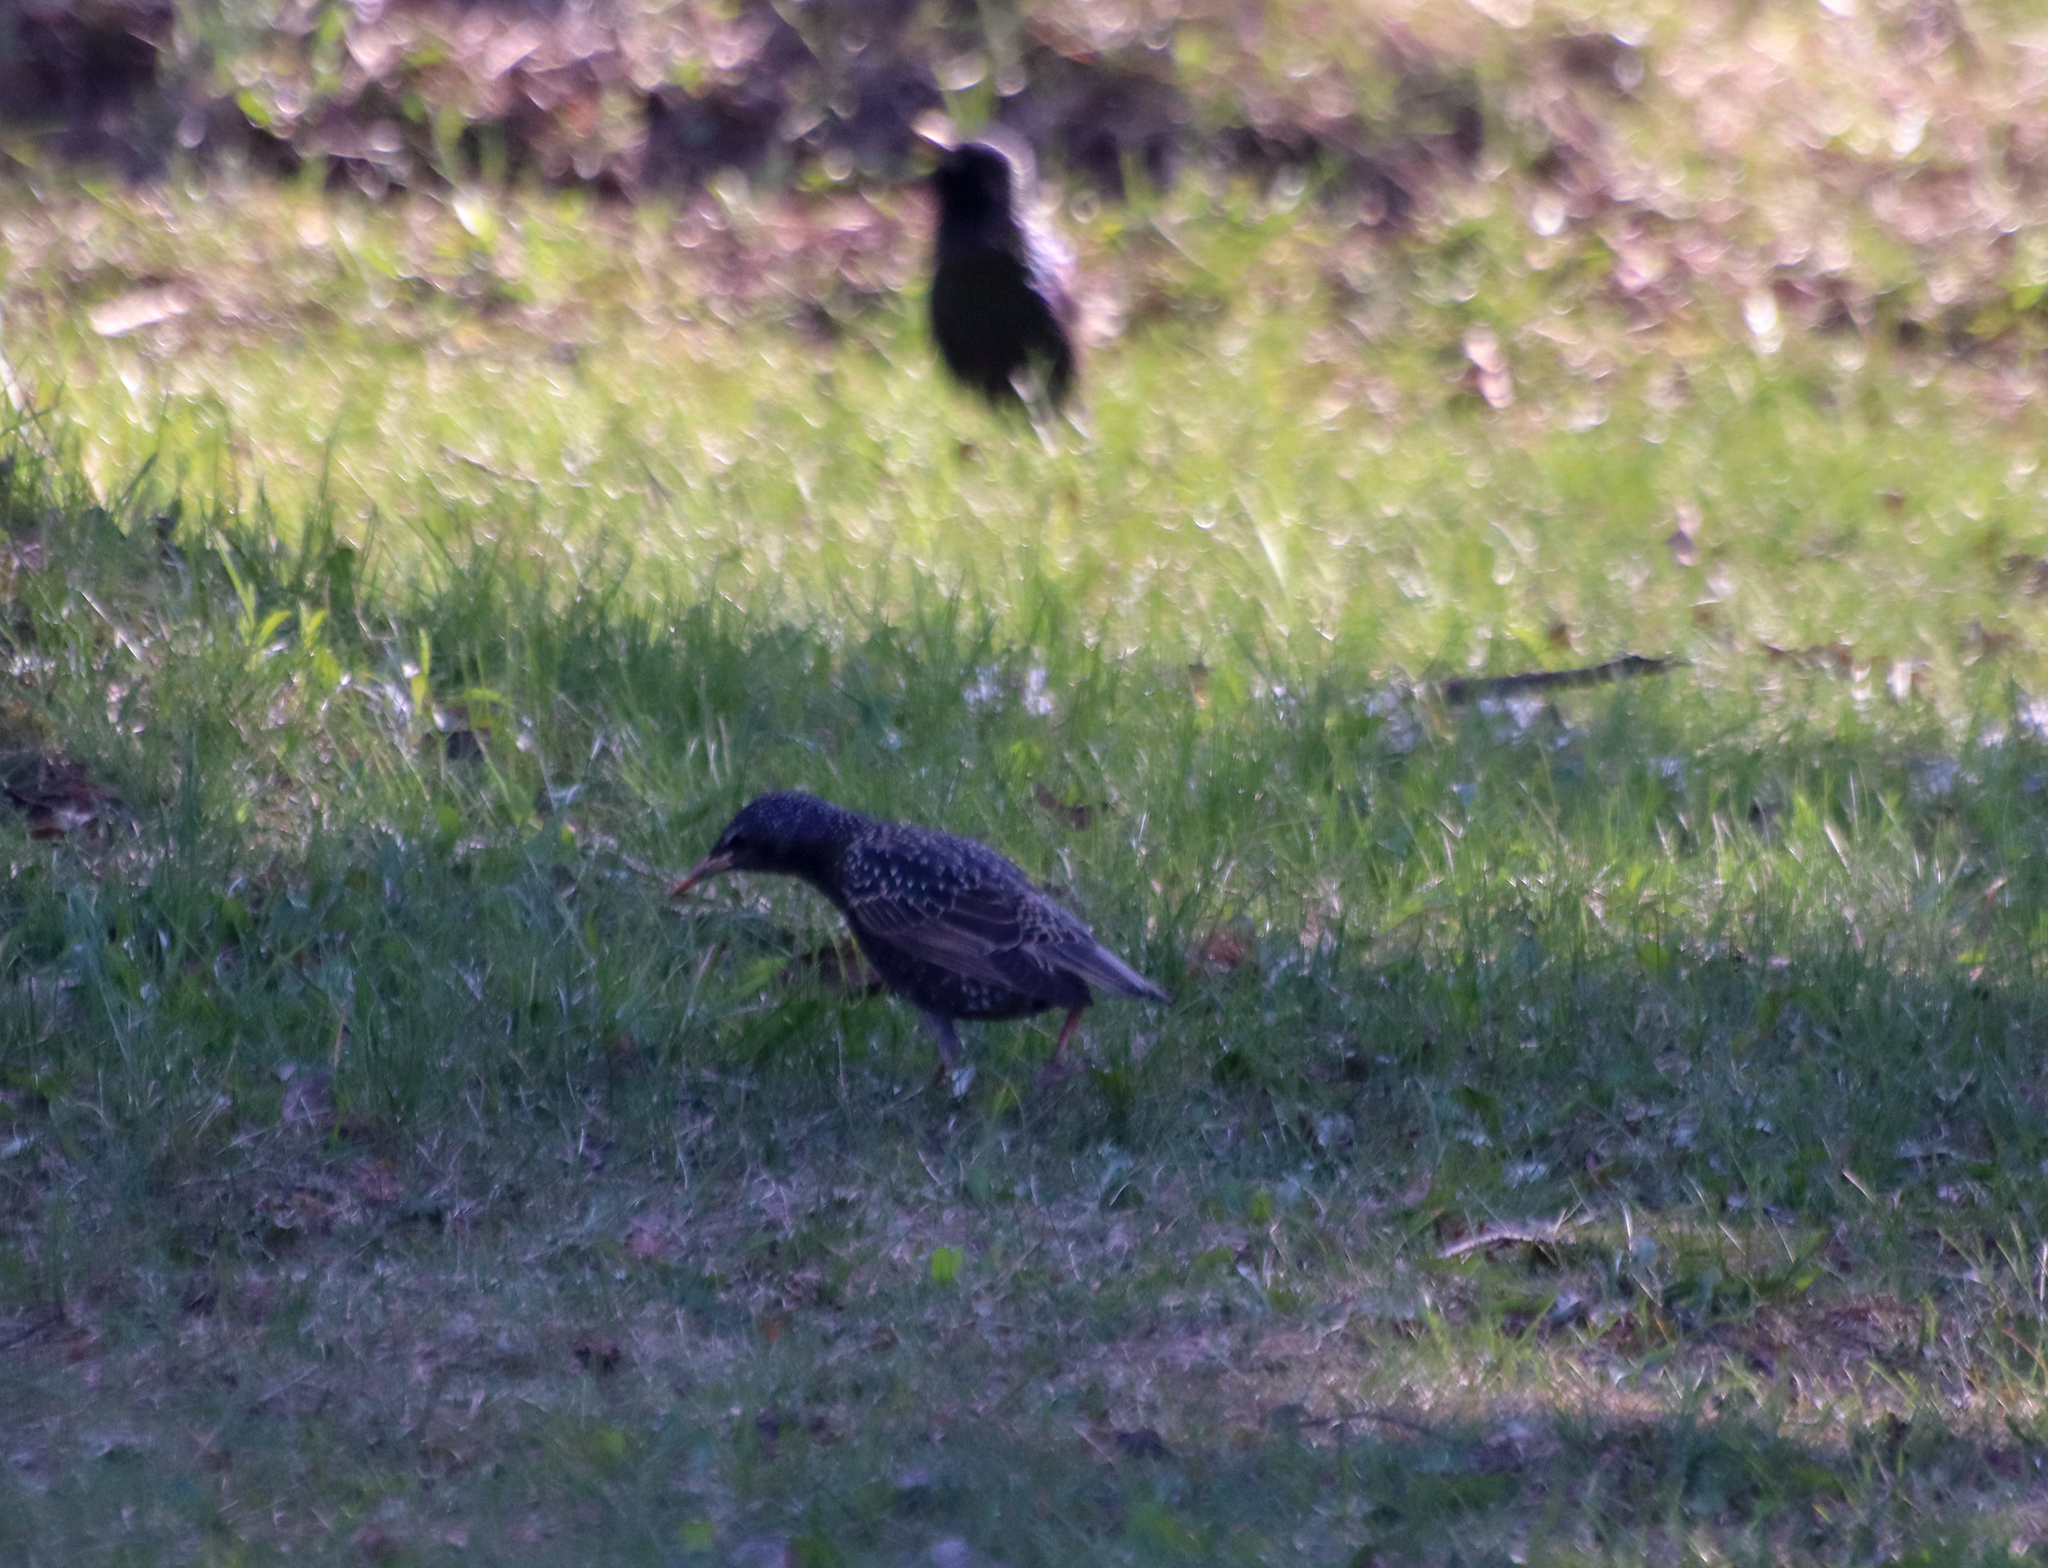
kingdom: Animalia
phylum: Chordata
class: Aves
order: Passeriformes
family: Sturnidae
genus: Sturnus
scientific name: Sturnus vulgaris
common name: Common starling
